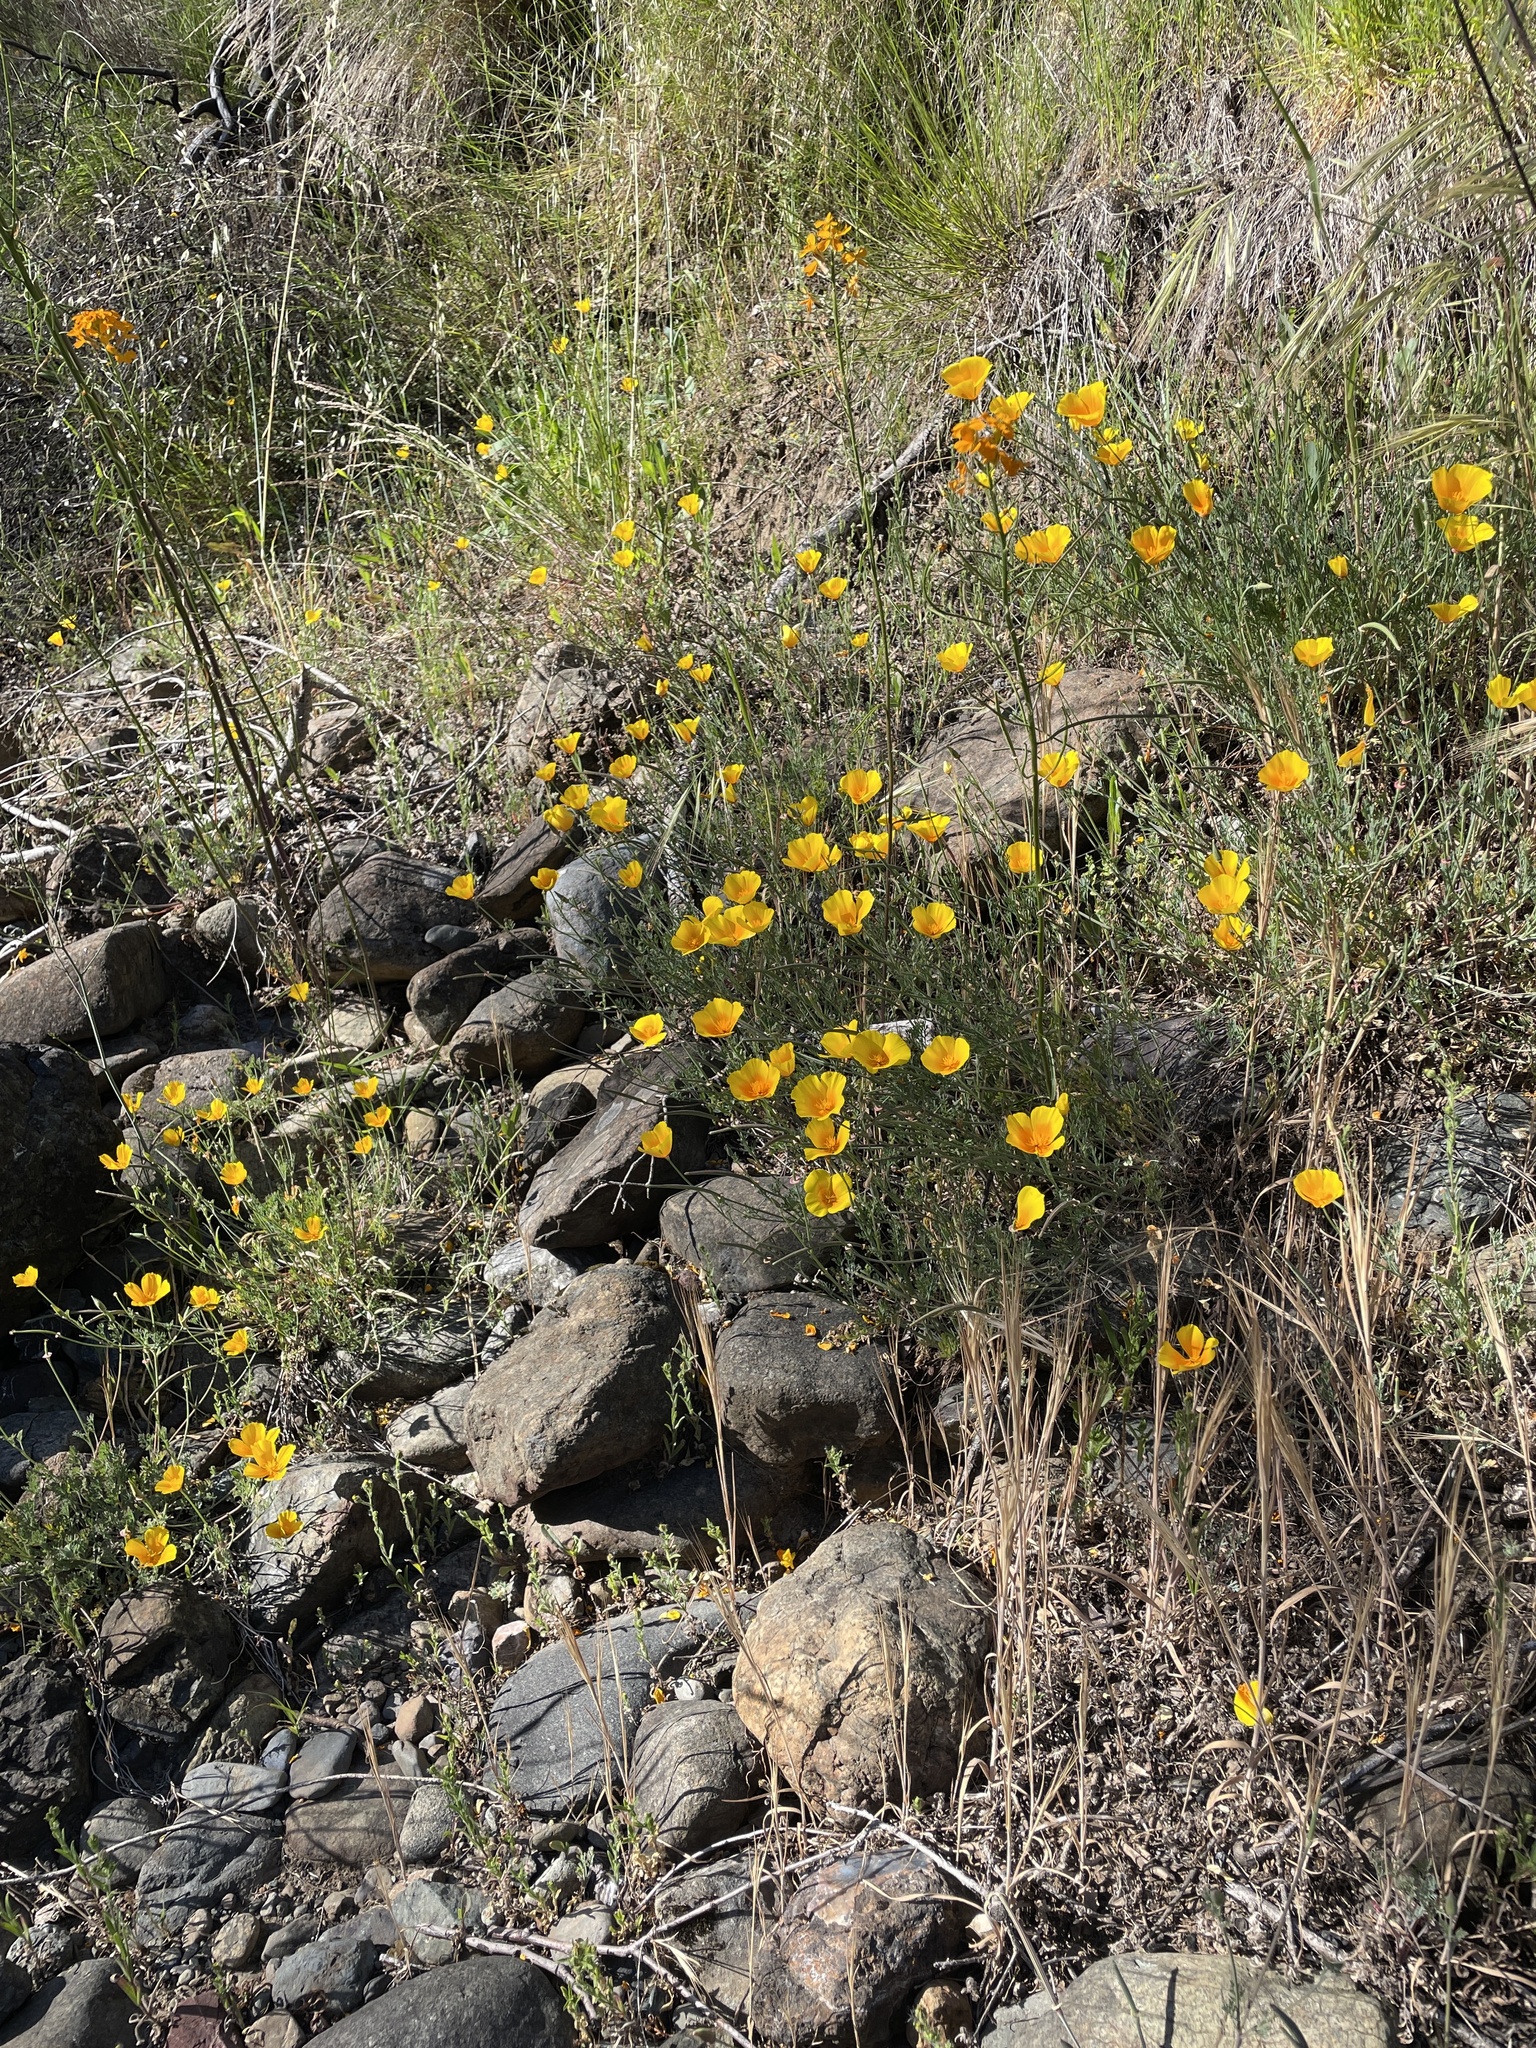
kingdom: Plantae
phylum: Tracheophyta
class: Magnoliopsida
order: Ranunculales
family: Papaveraceae
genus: Eschscholzia
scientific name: Eschscholzia californica
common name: California poppy
